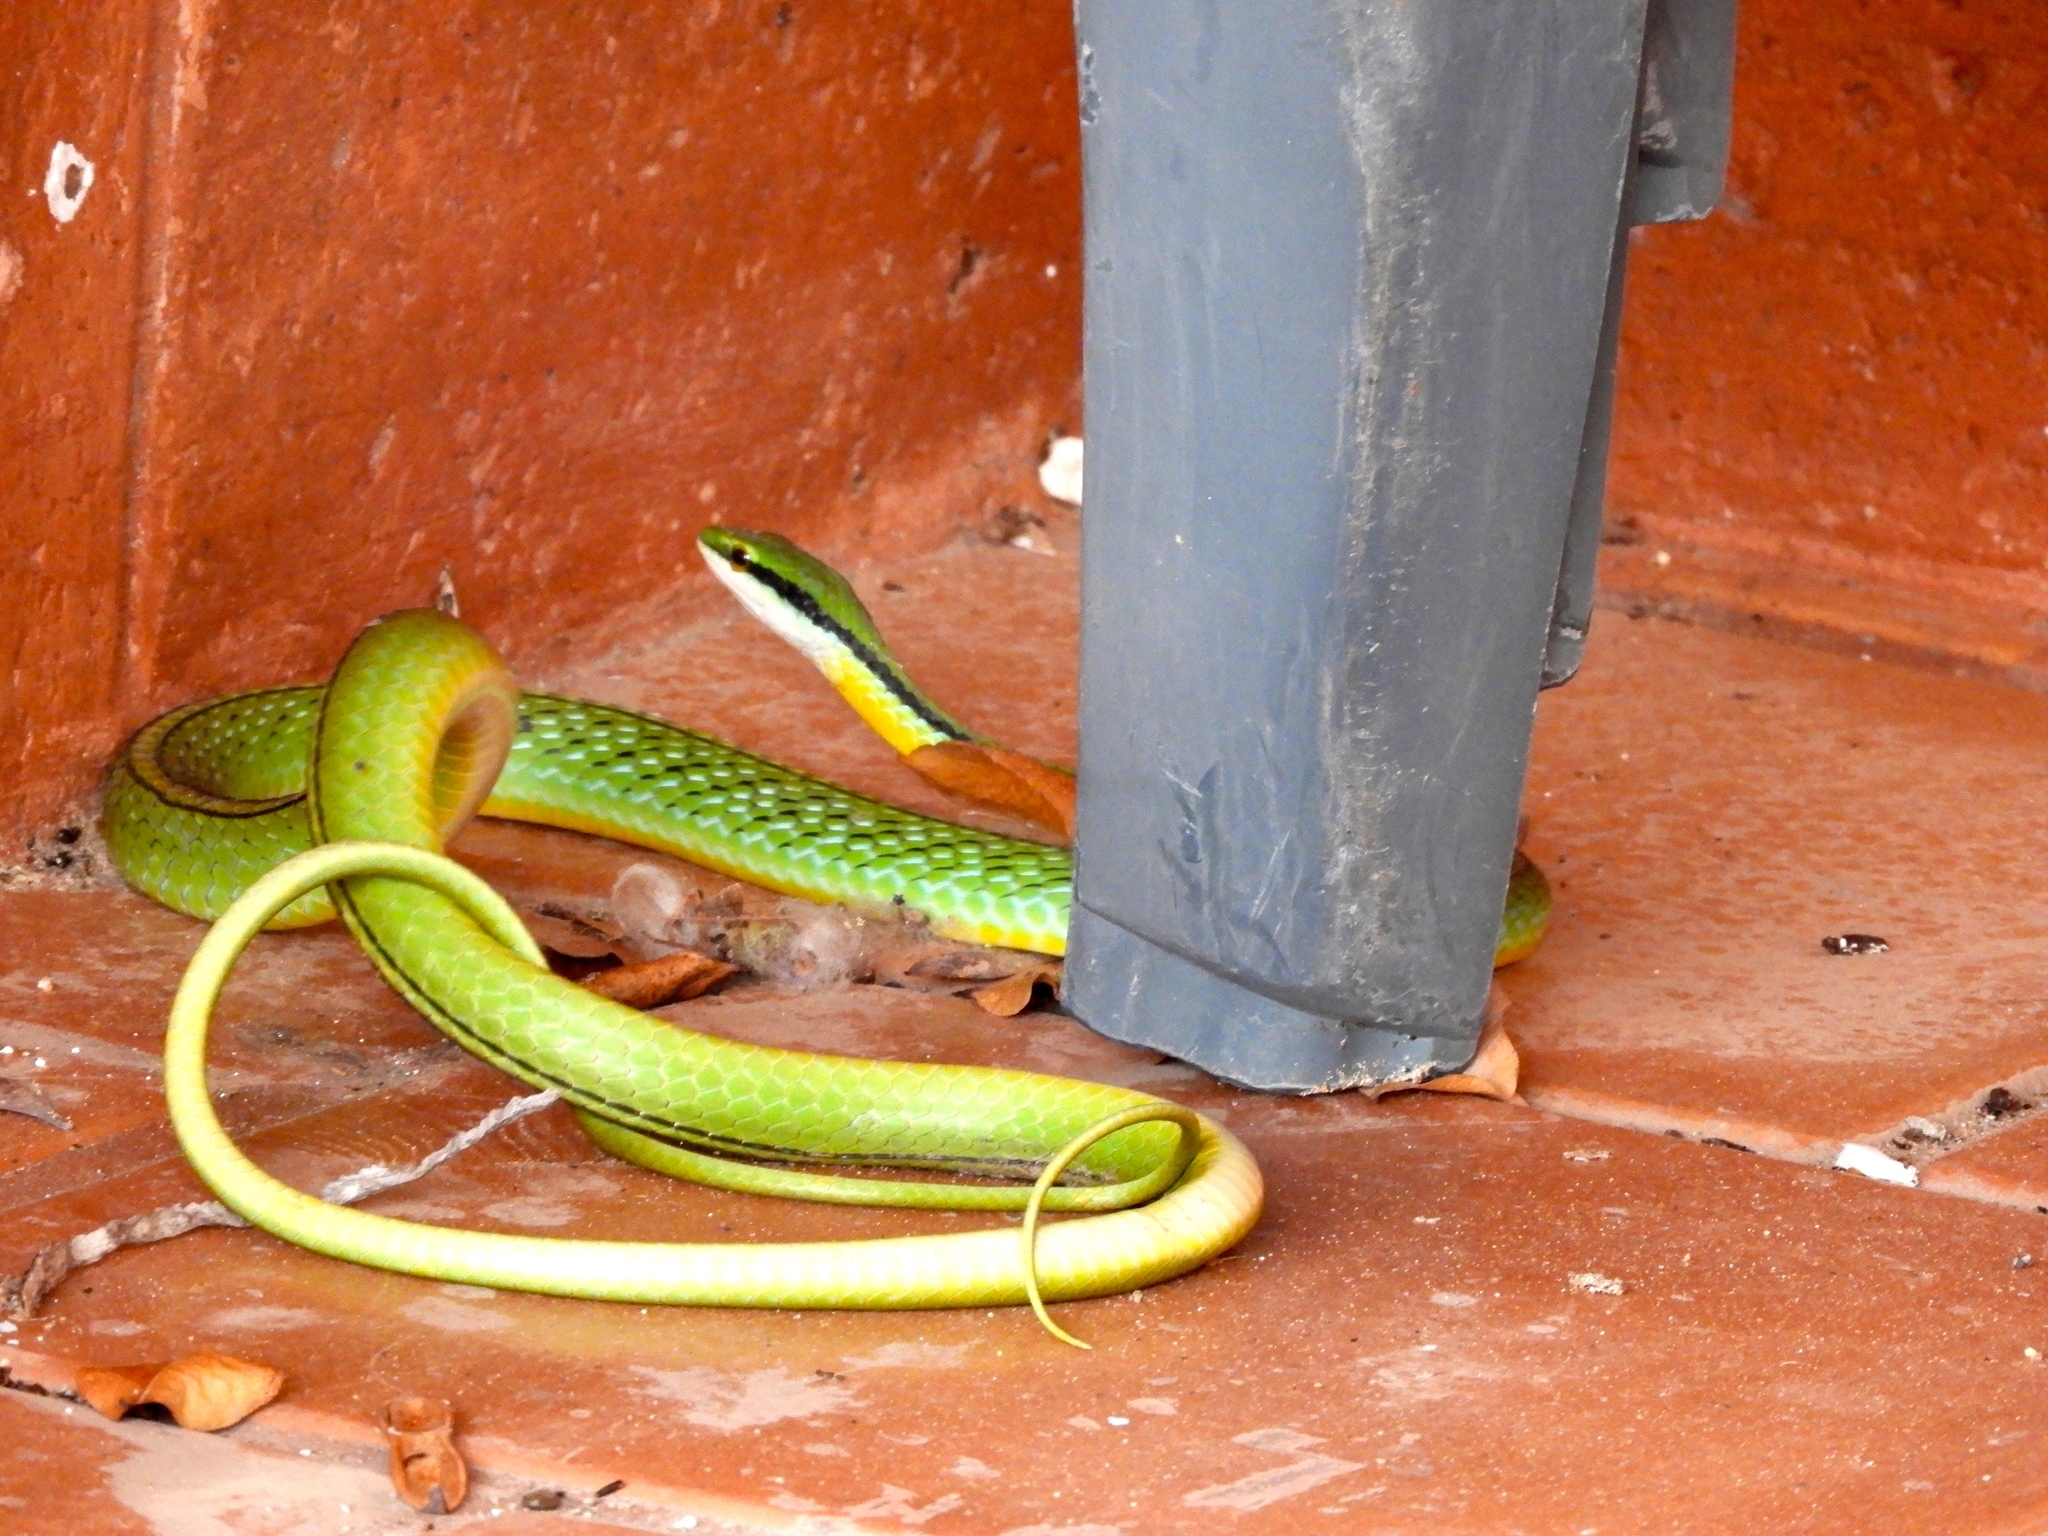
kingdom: Animalia
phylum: Chordata
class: Squamata
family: Colubridae
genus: Leptophis
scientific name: Leptophis diplotropis
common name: Pacific coast parrot snake
